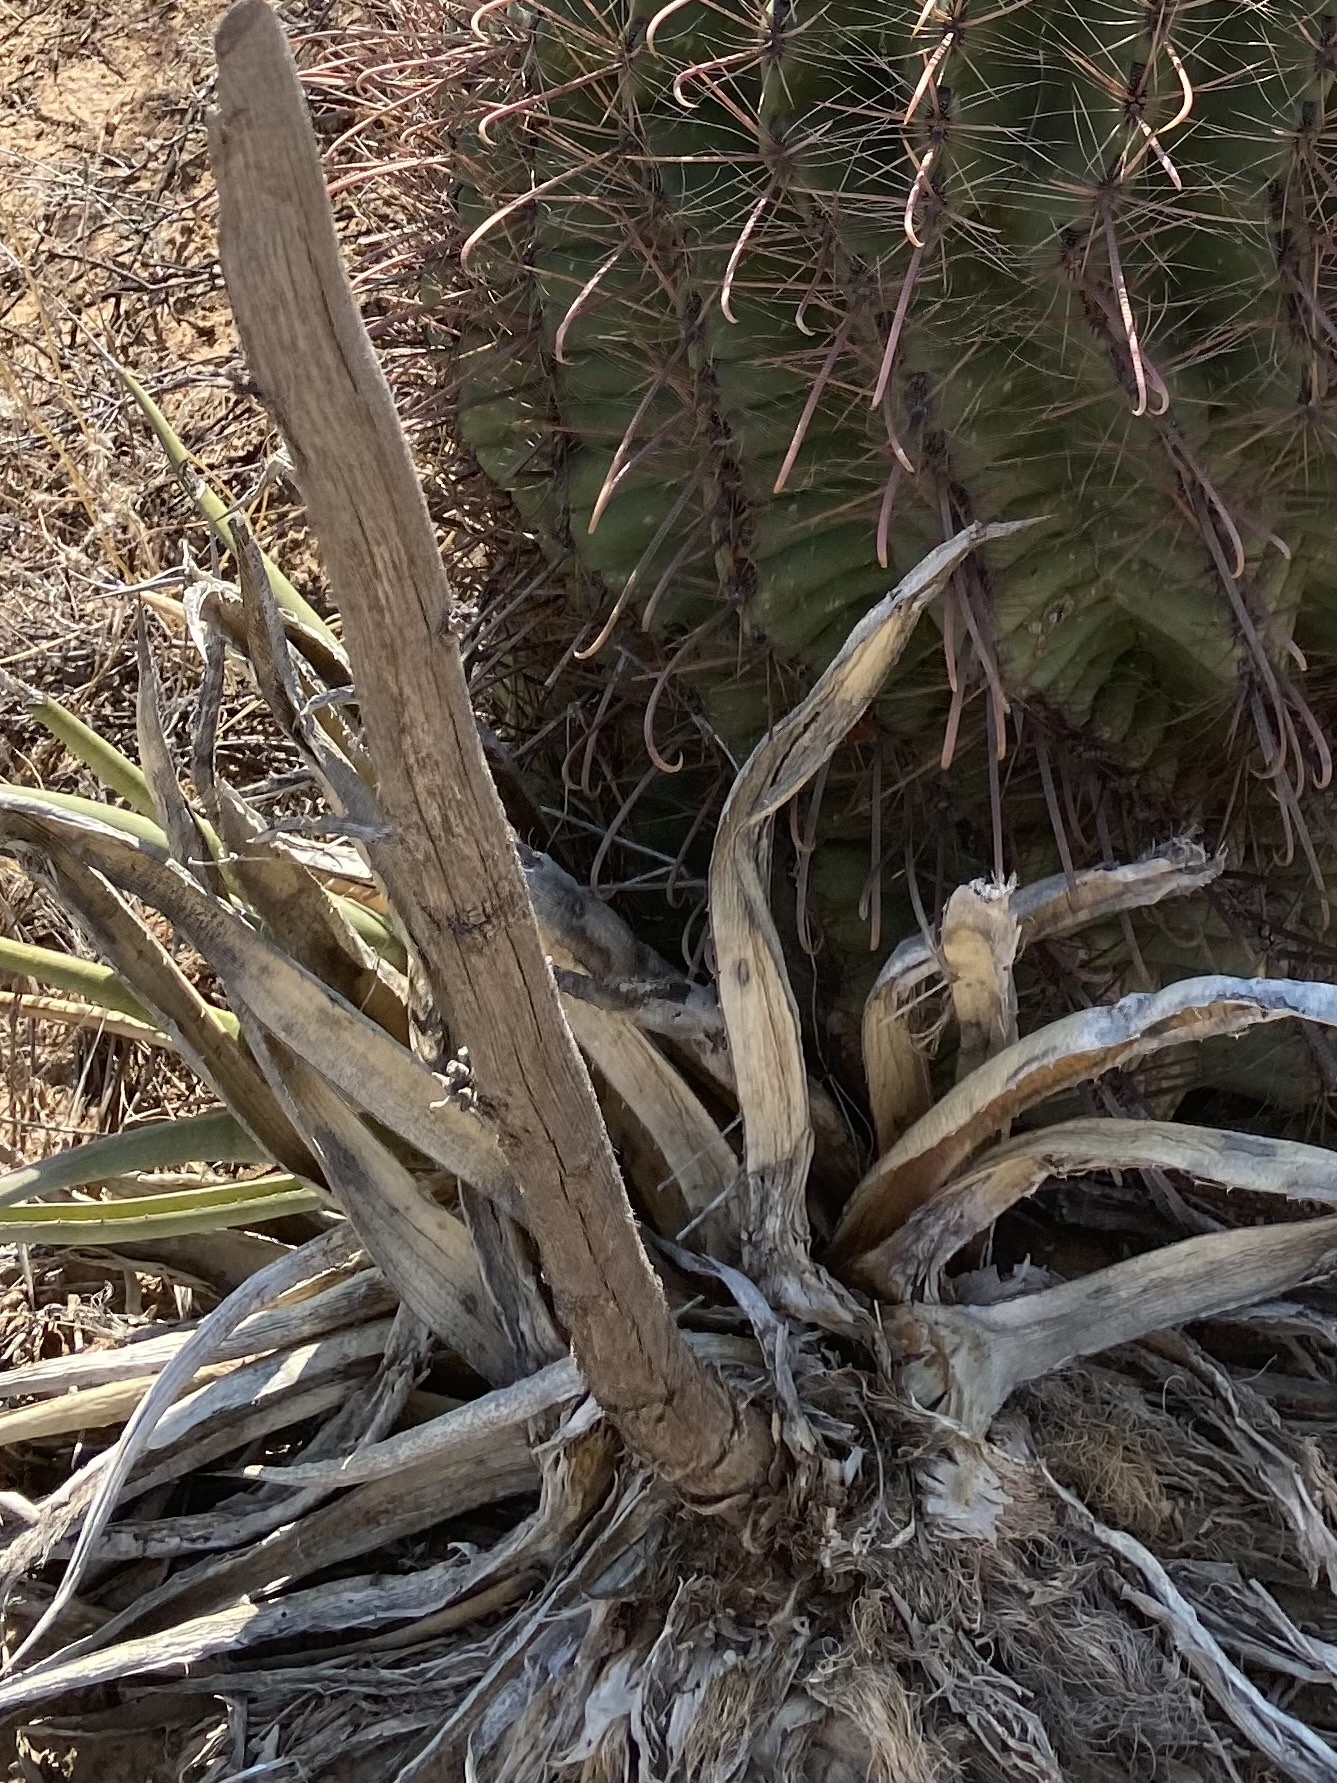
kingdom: Plantae
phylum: Tracheophyta
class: Liliopsida
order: Asparagales
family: Asparagaceae
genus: Agave
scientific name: Agave lechuguilla
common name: Lecheguilla agave
